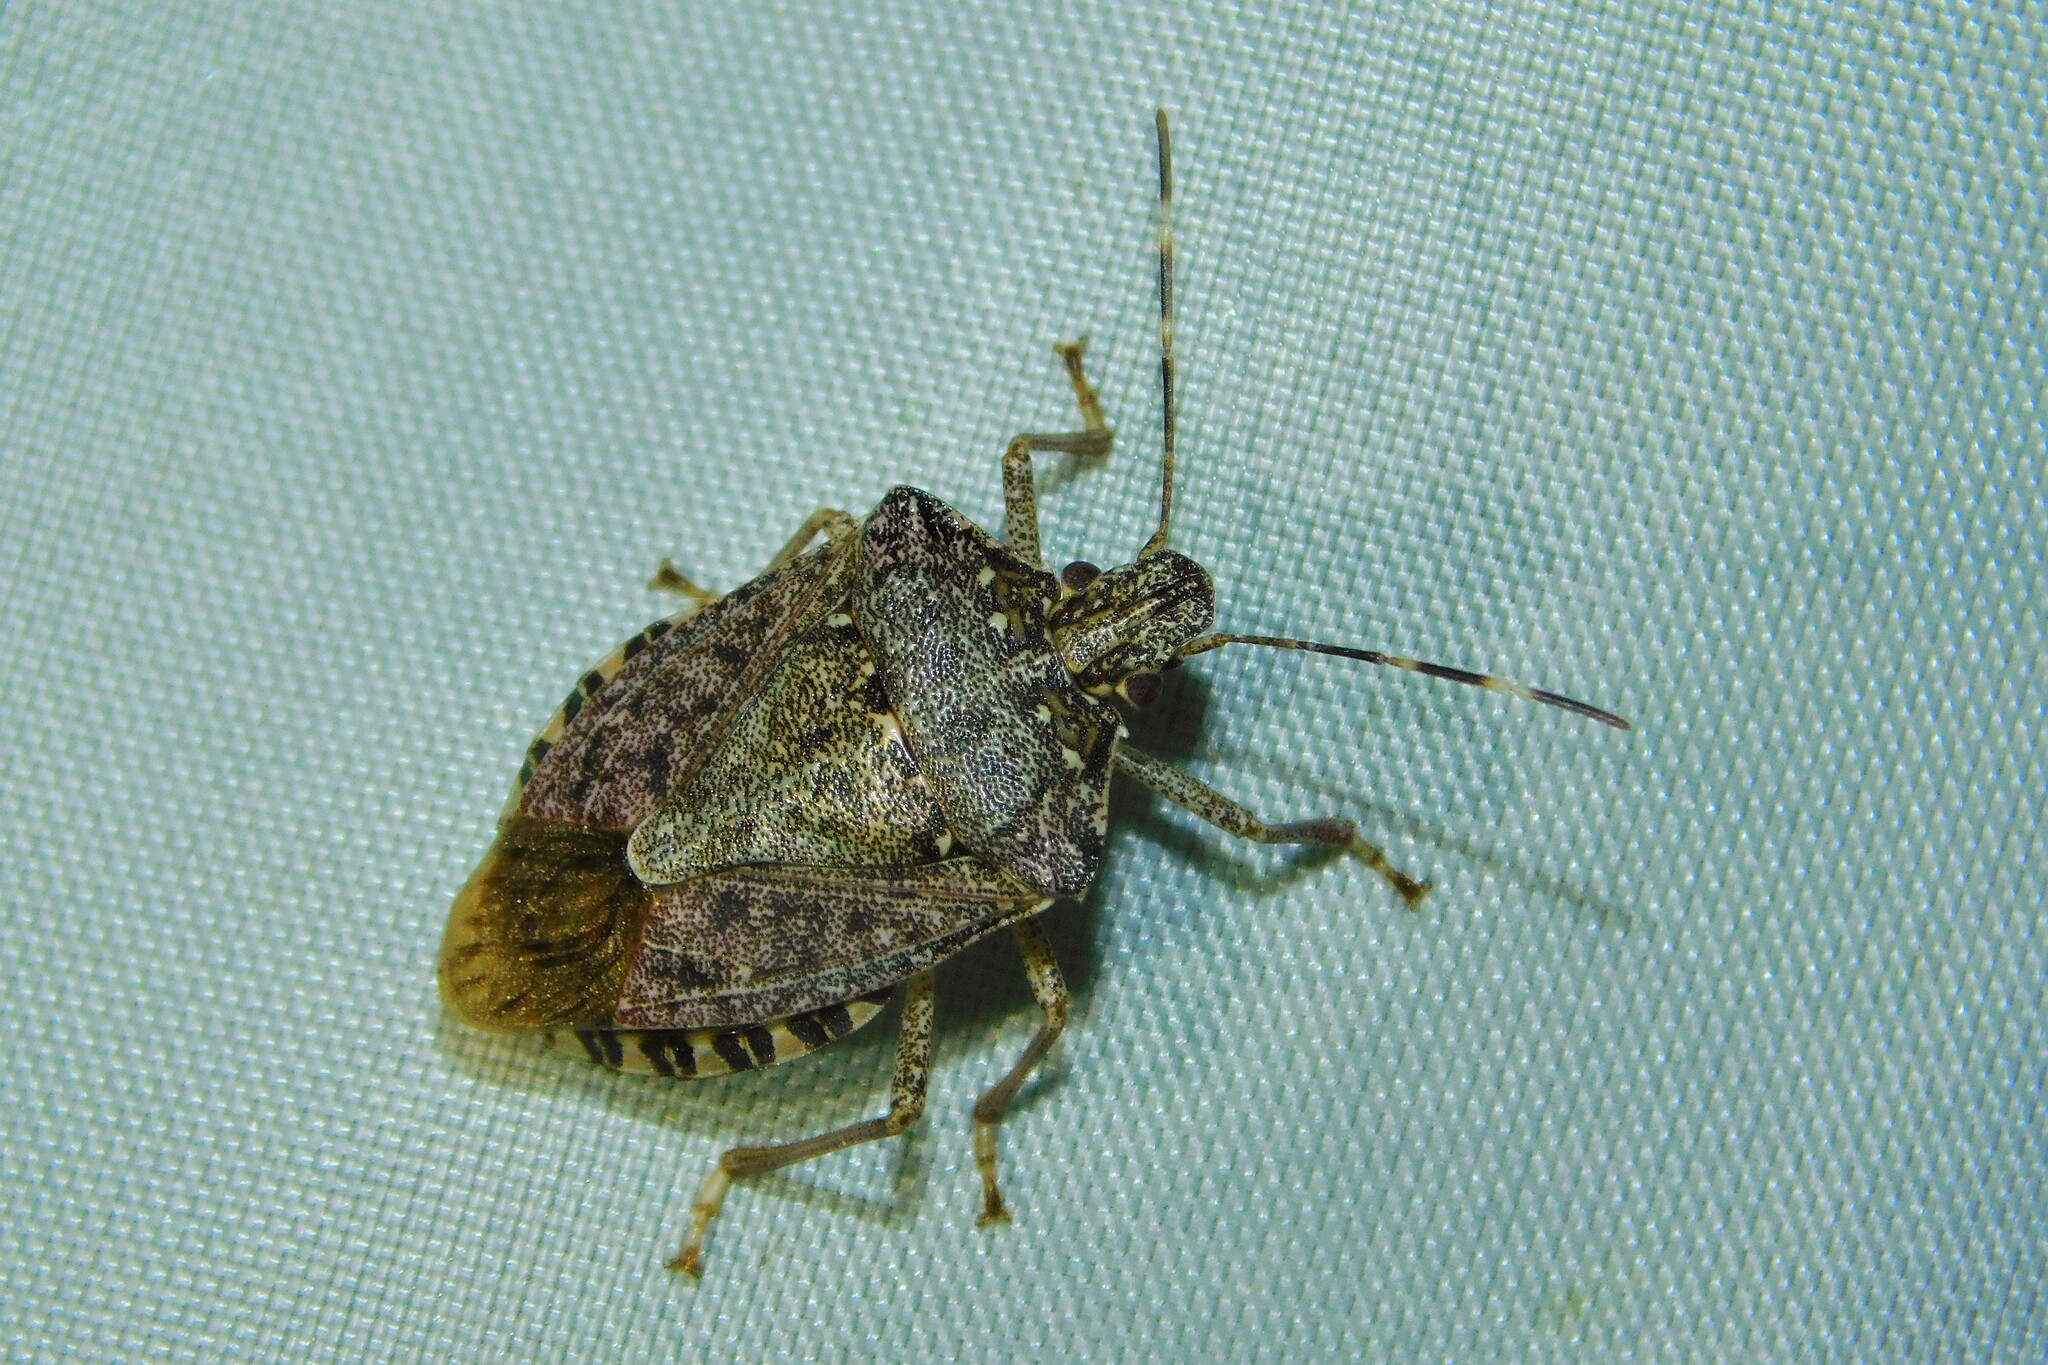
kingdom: Animalia
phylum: Arthropoda
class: Insecta
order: Hemiptera
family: Pentatomidae
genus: Halyomorpha
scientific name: Halyomorpha halys
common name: Brown marmorated stink bug
